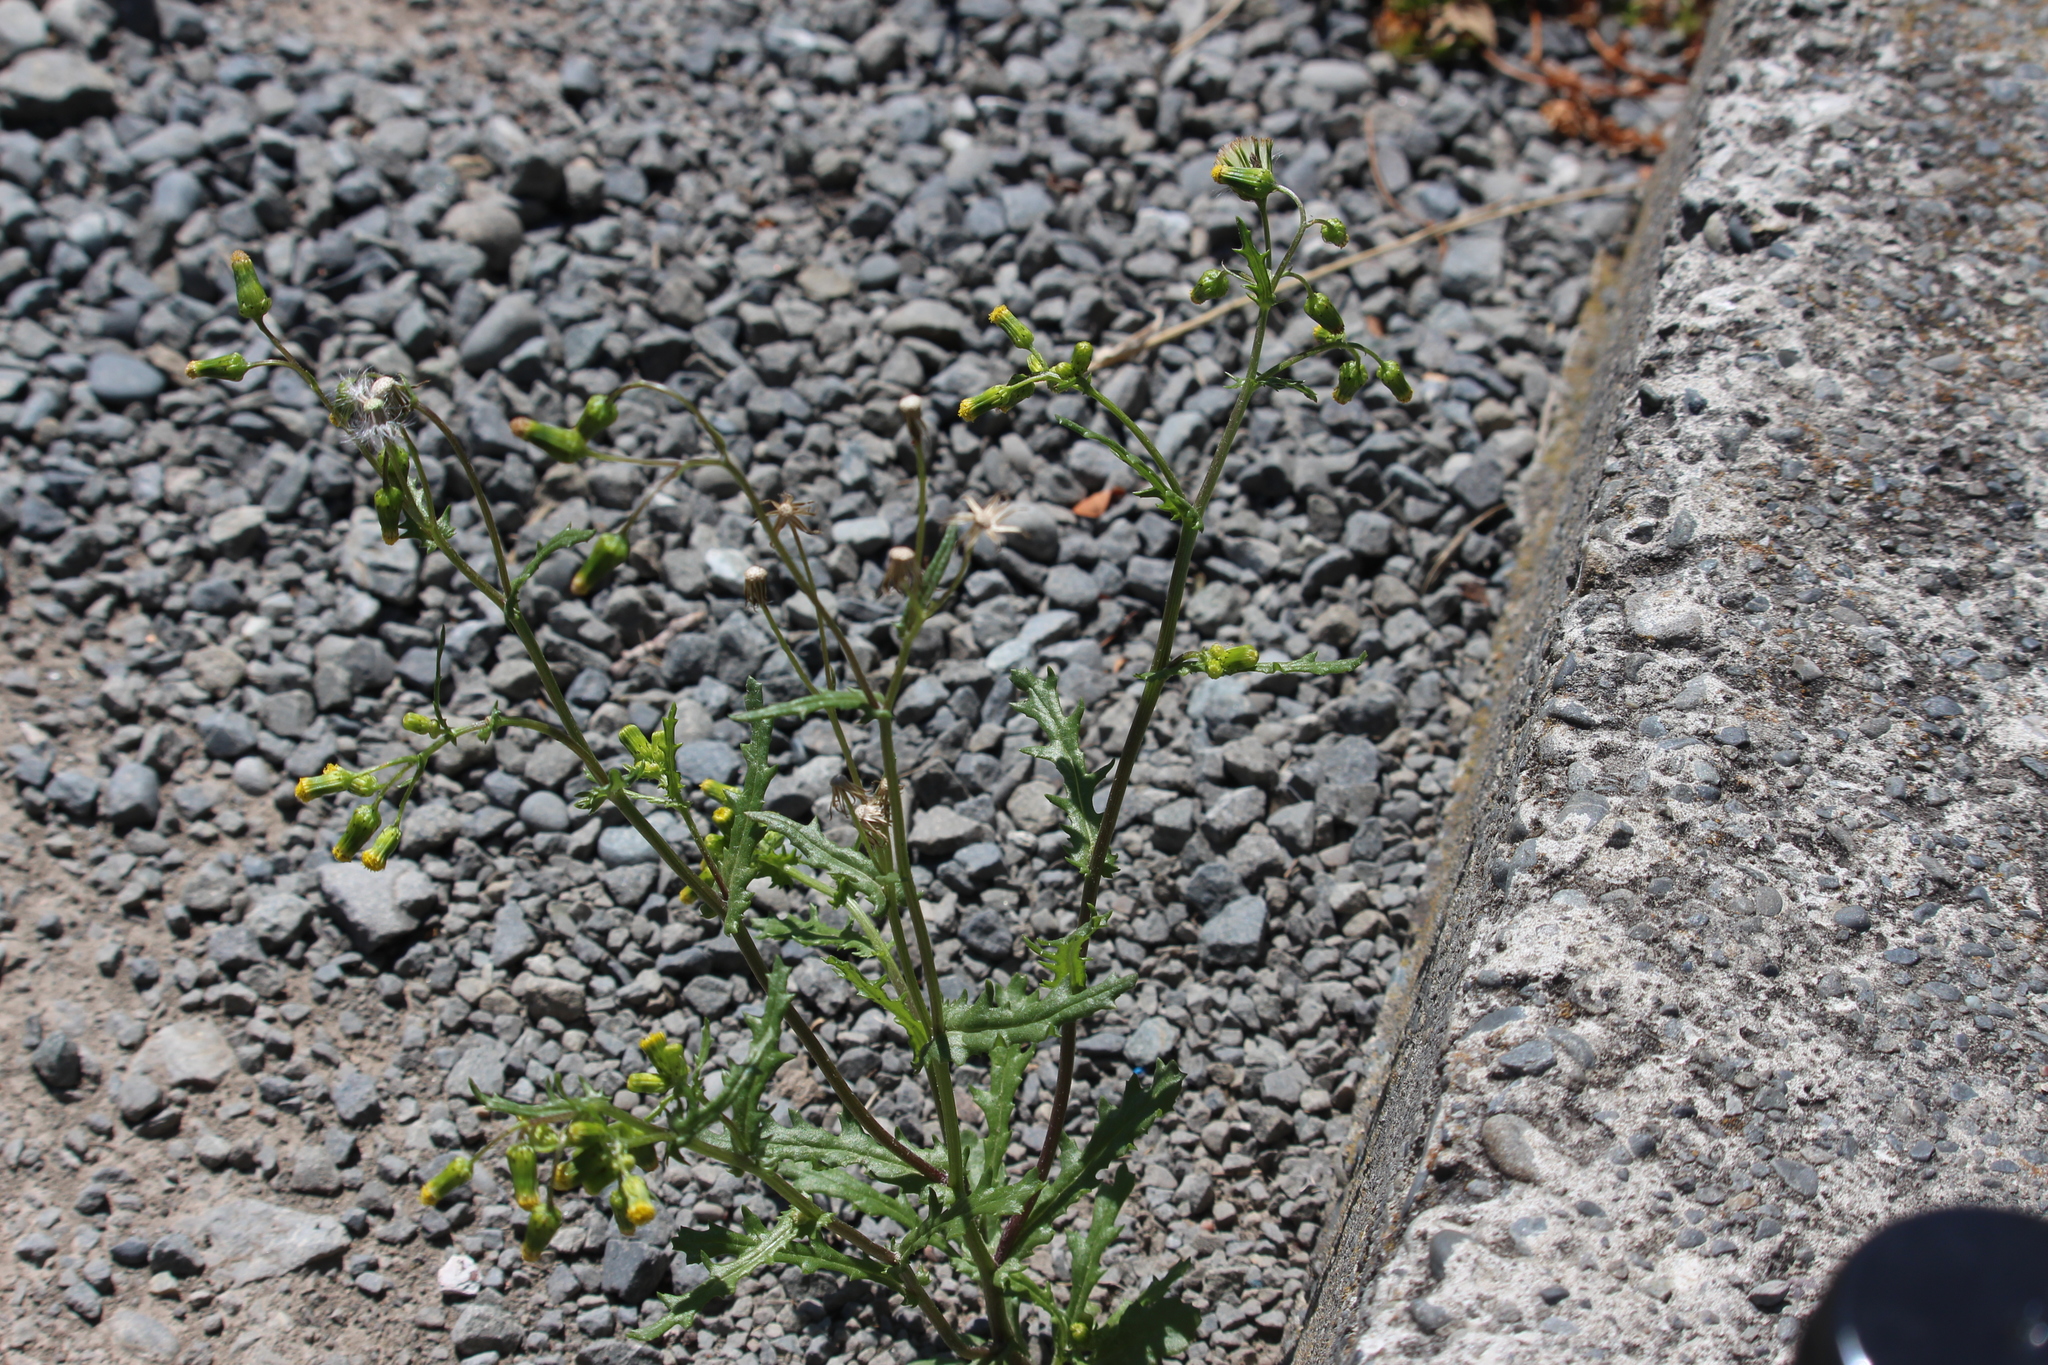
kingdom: Plantae
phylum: Tracheophyta
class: Magnoliopsida
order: Asterales
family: Asteraceae
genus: Senecio
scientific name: Senecio vulgaris
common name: Old-man-in-the-spring
